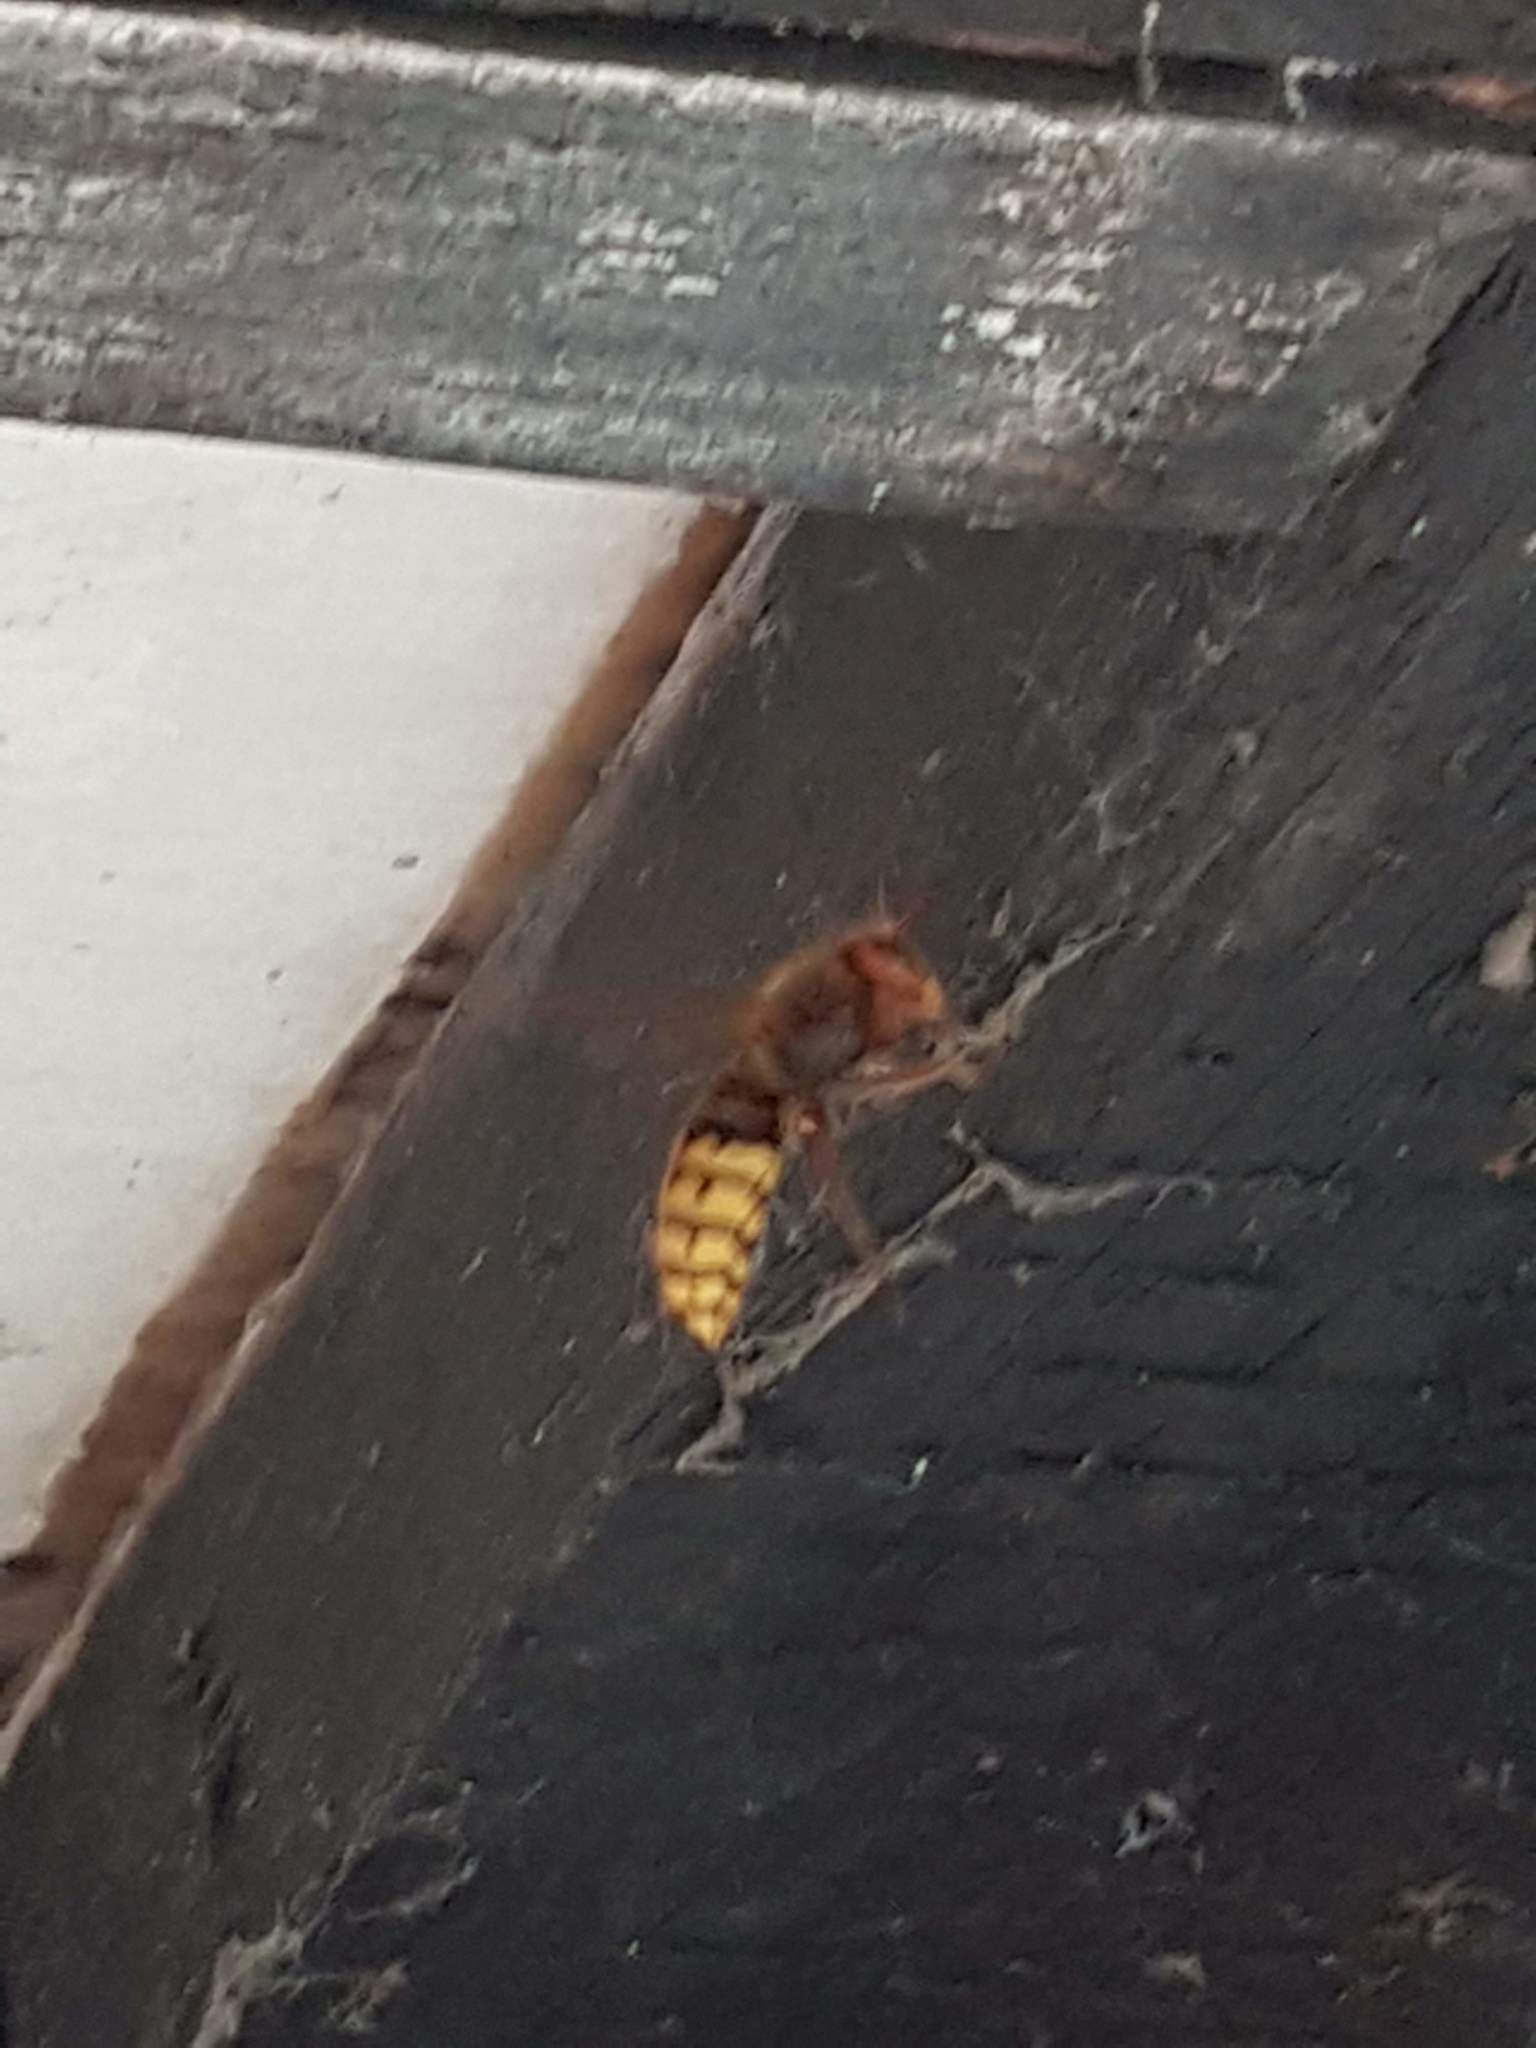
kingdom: Animalia
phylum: Arthropoda
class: Insecta
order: Hymenoptera
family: Vespidae
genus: Vespa
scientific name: Vespa crabro
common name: Hornet
